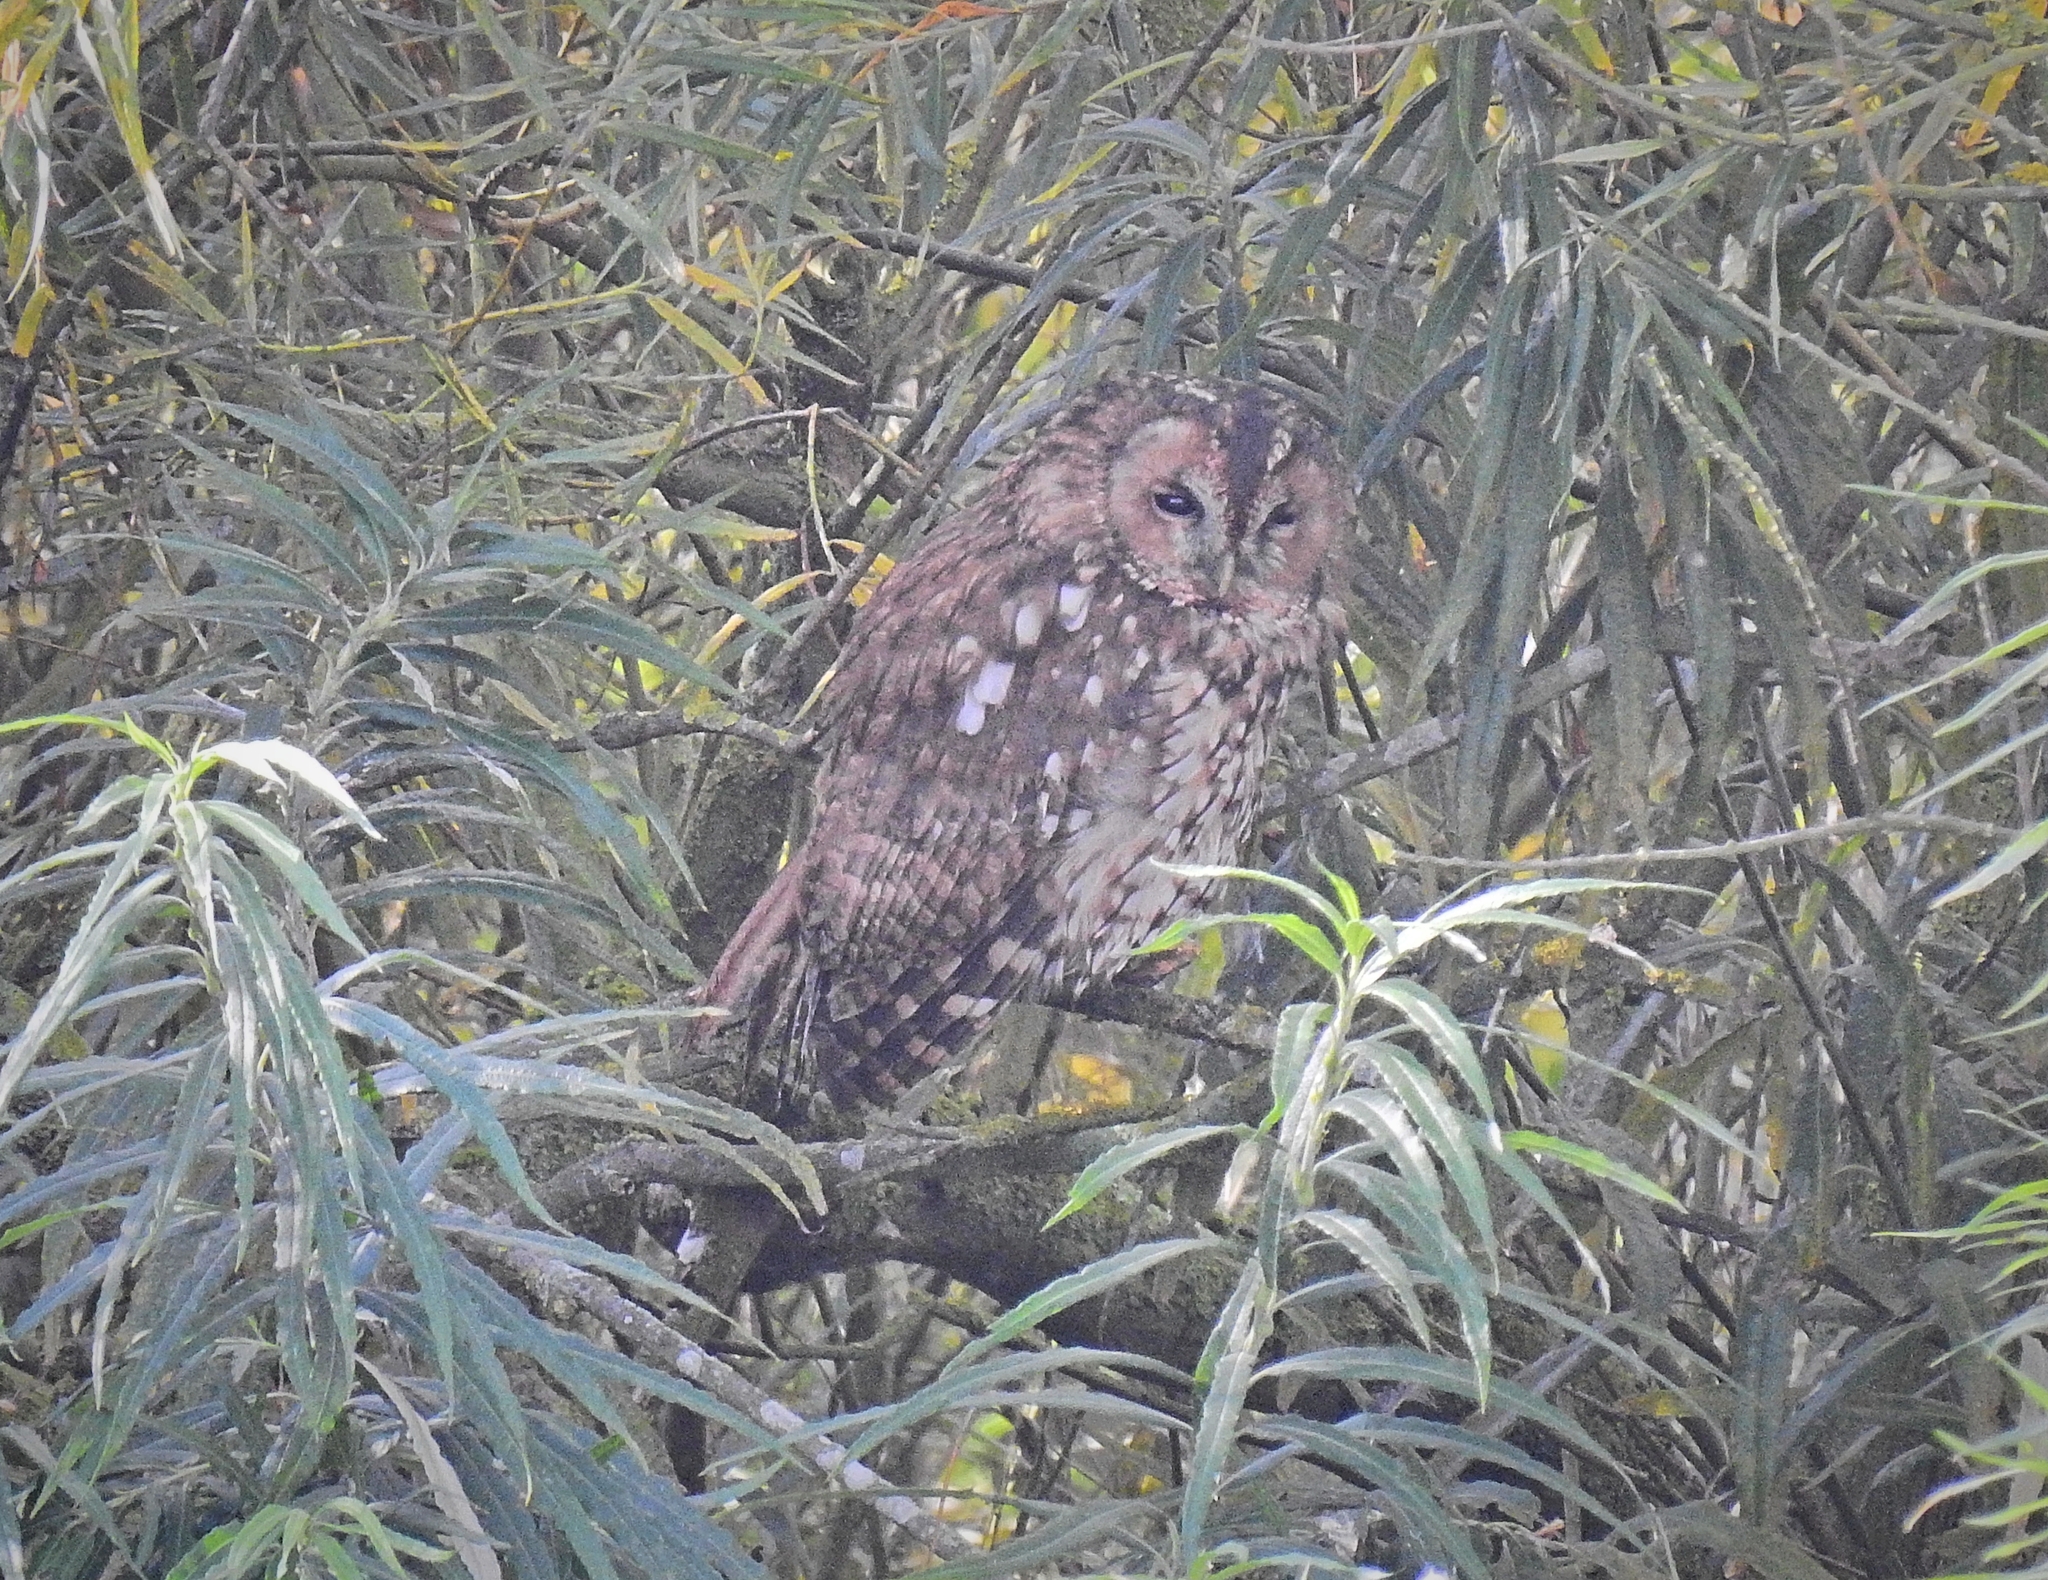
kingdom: Animalia
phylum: Chordata
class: Aves
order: Strigiformes
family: Strigidae
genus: Strix
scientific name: Strix aluco
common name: Tawny owl
